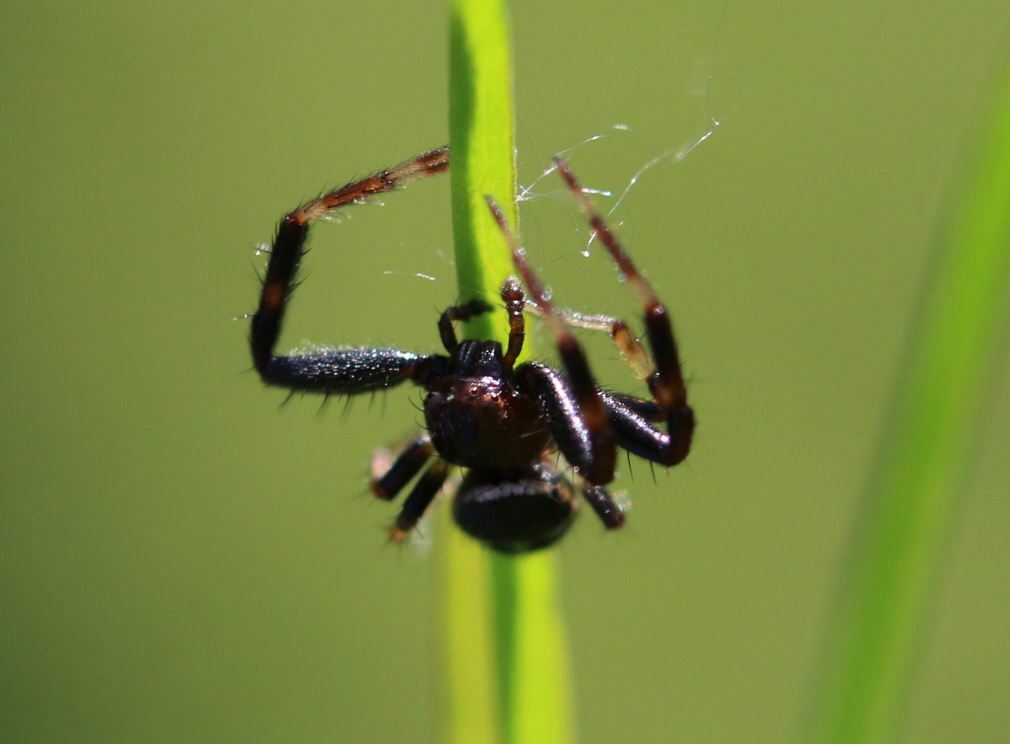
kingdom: Animalia
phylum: Arthropoda
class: Arachnida
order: Araneae
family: Thomisidae
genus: Synema
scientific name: Synema globosum
